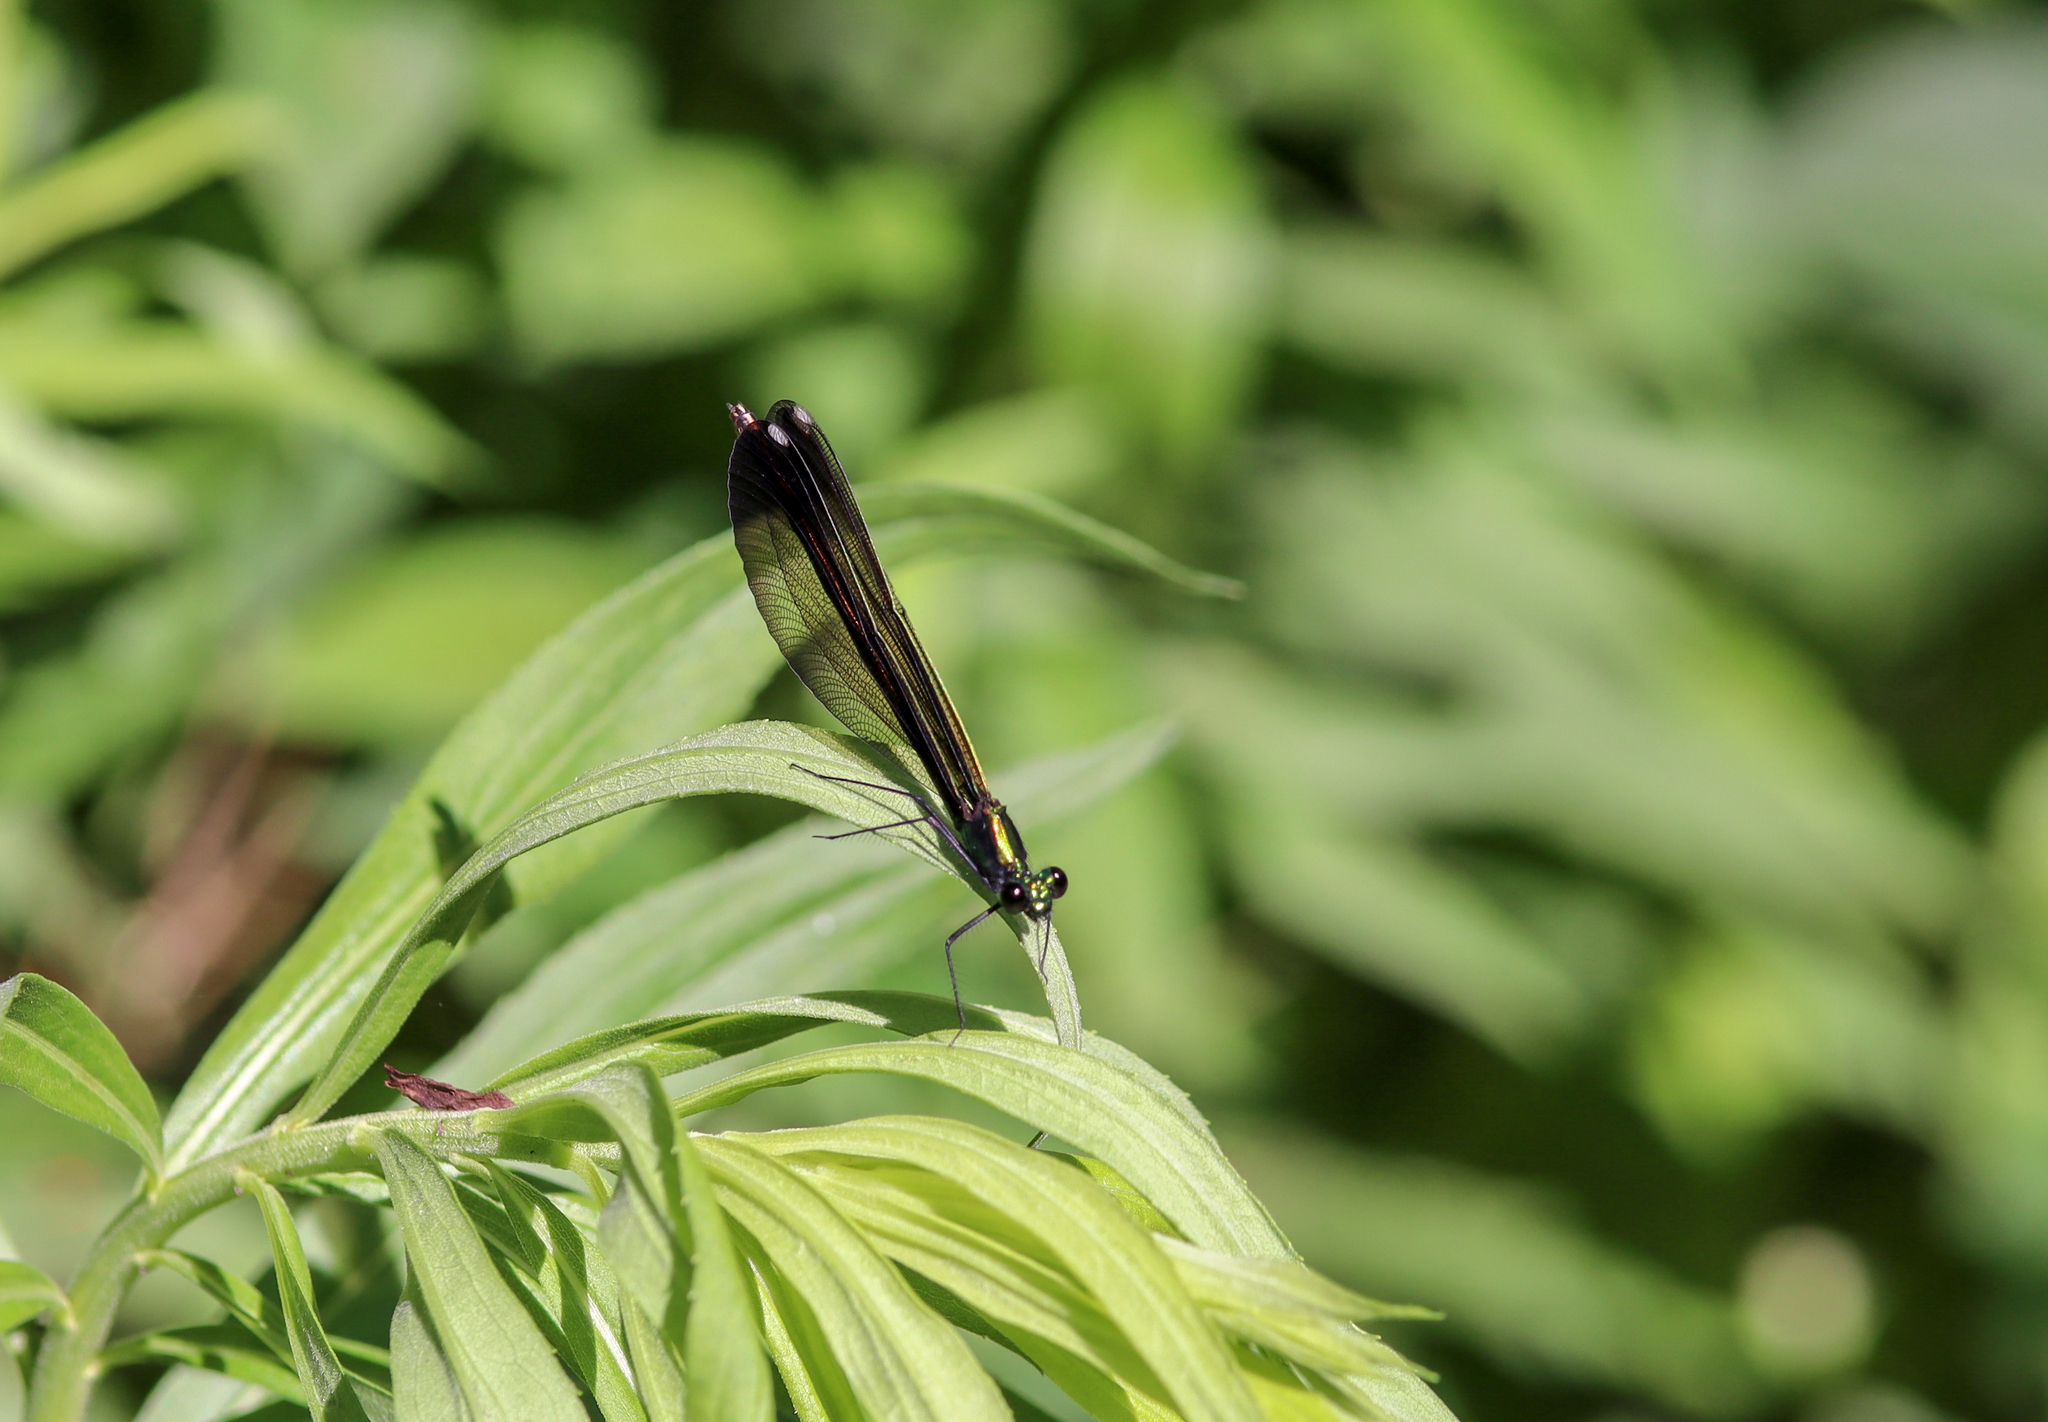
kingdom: Animalia
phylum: Arthropoda
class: Insecta
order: Odonata
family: Calopterygidae
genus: Calopteryx
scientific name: Calopteryx maculata
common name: Ebony jewelwing
